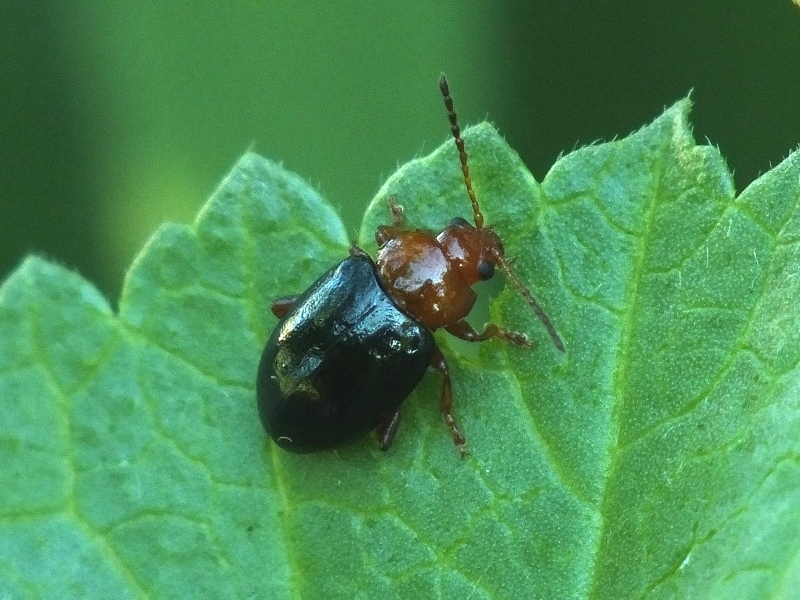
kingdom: Animalia
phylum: Arthropoda
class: Insecta
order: Coleoptera
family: Chrysomelidae
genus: Podagrica
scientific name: Podagrica fuscicornis
